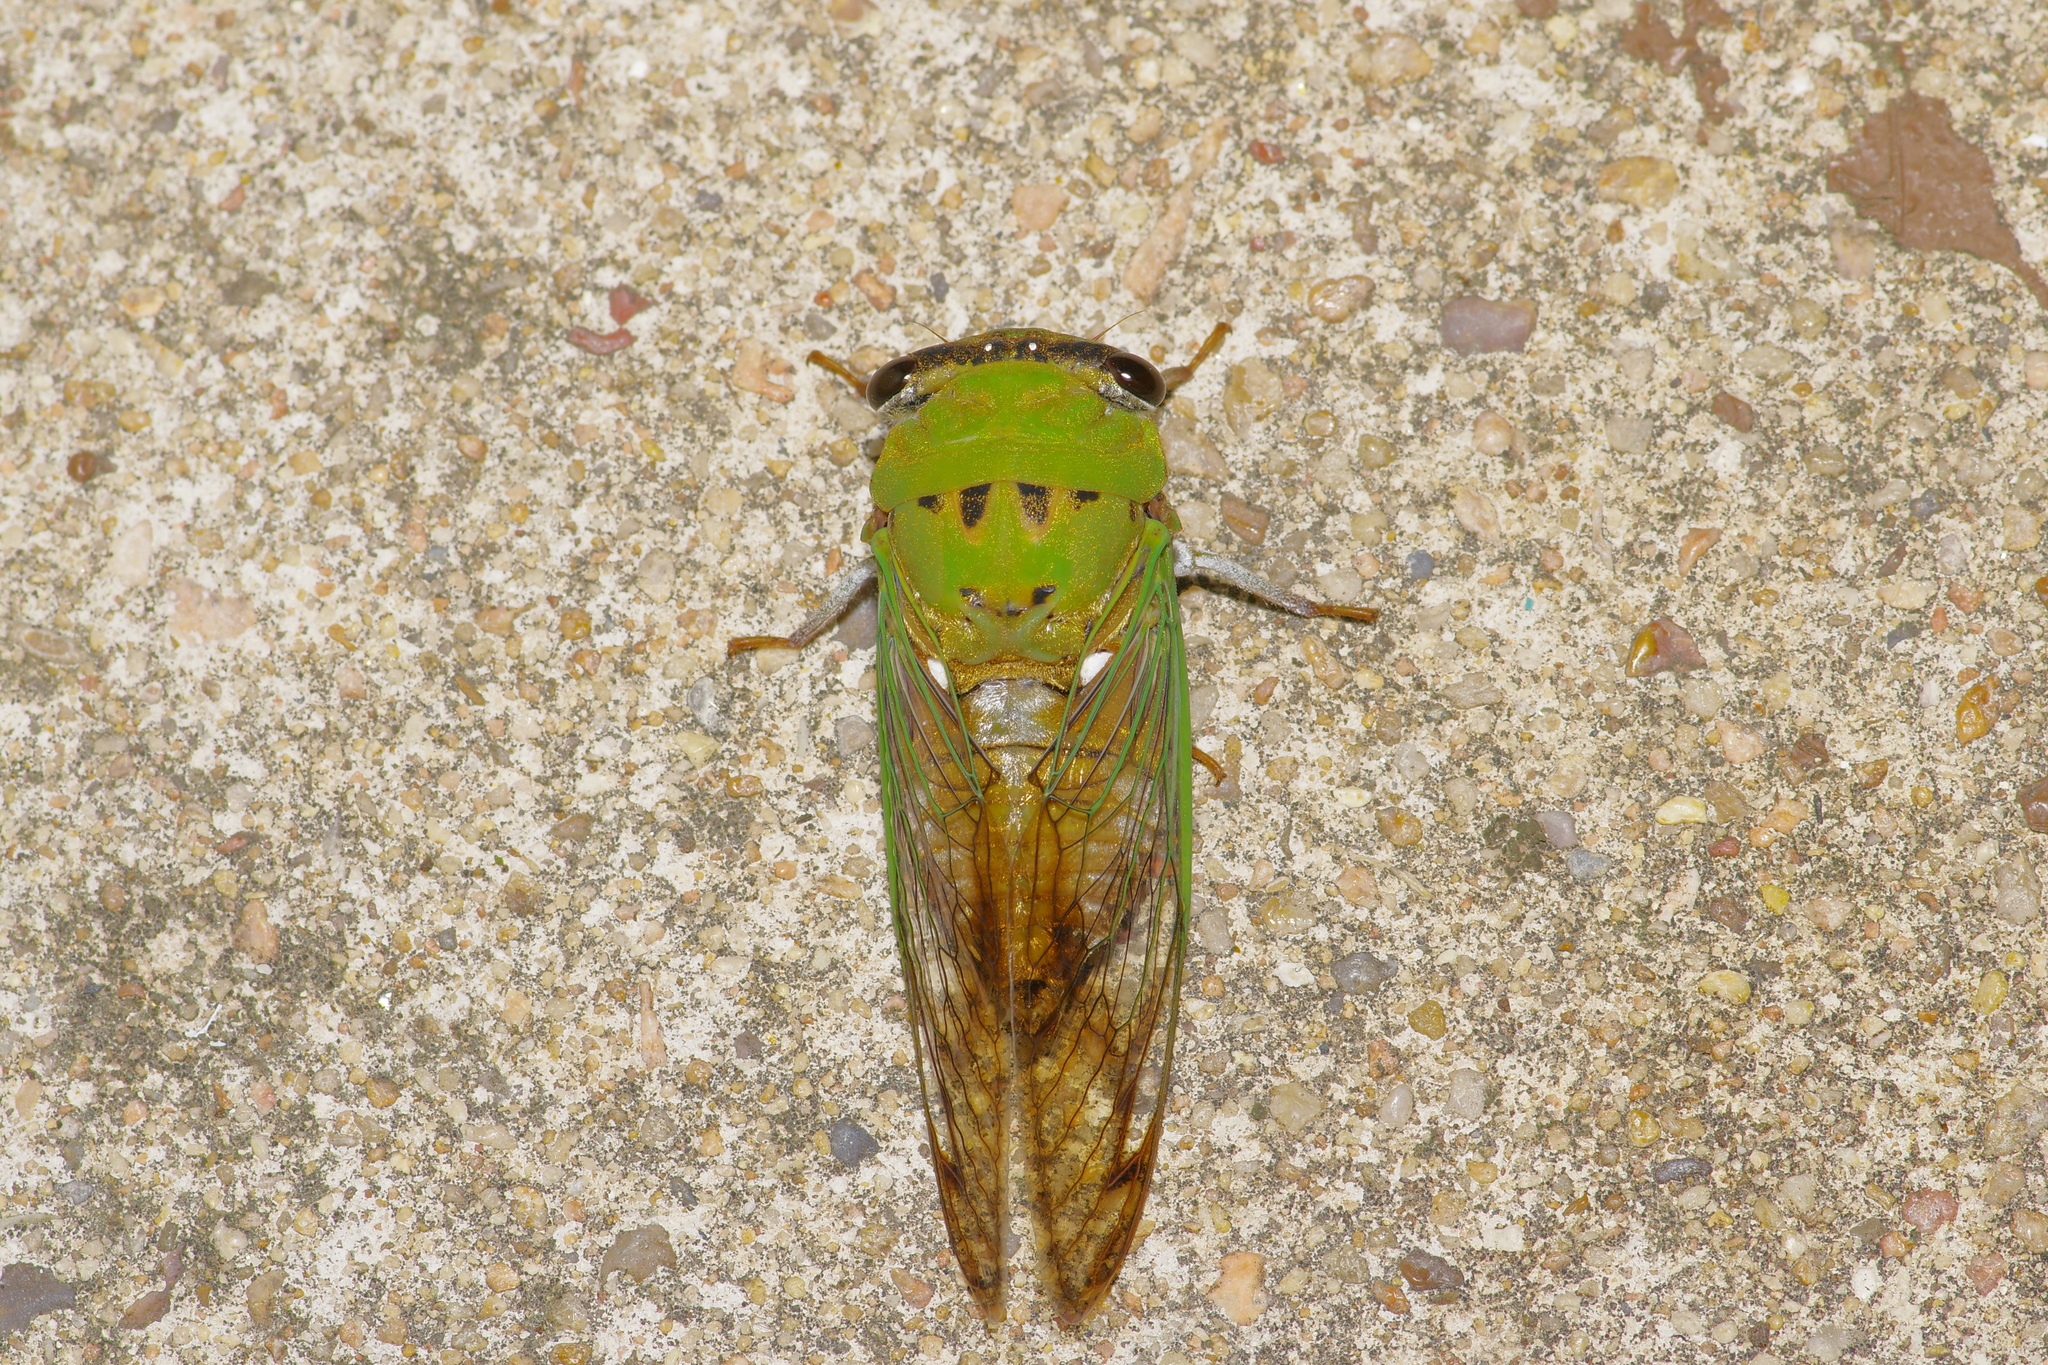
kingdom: Animalia
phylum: Arthropoda
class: Insecta
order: Hemiptera
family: Cicadidae
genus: Neotibicen
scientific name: Neotibicen superbus
